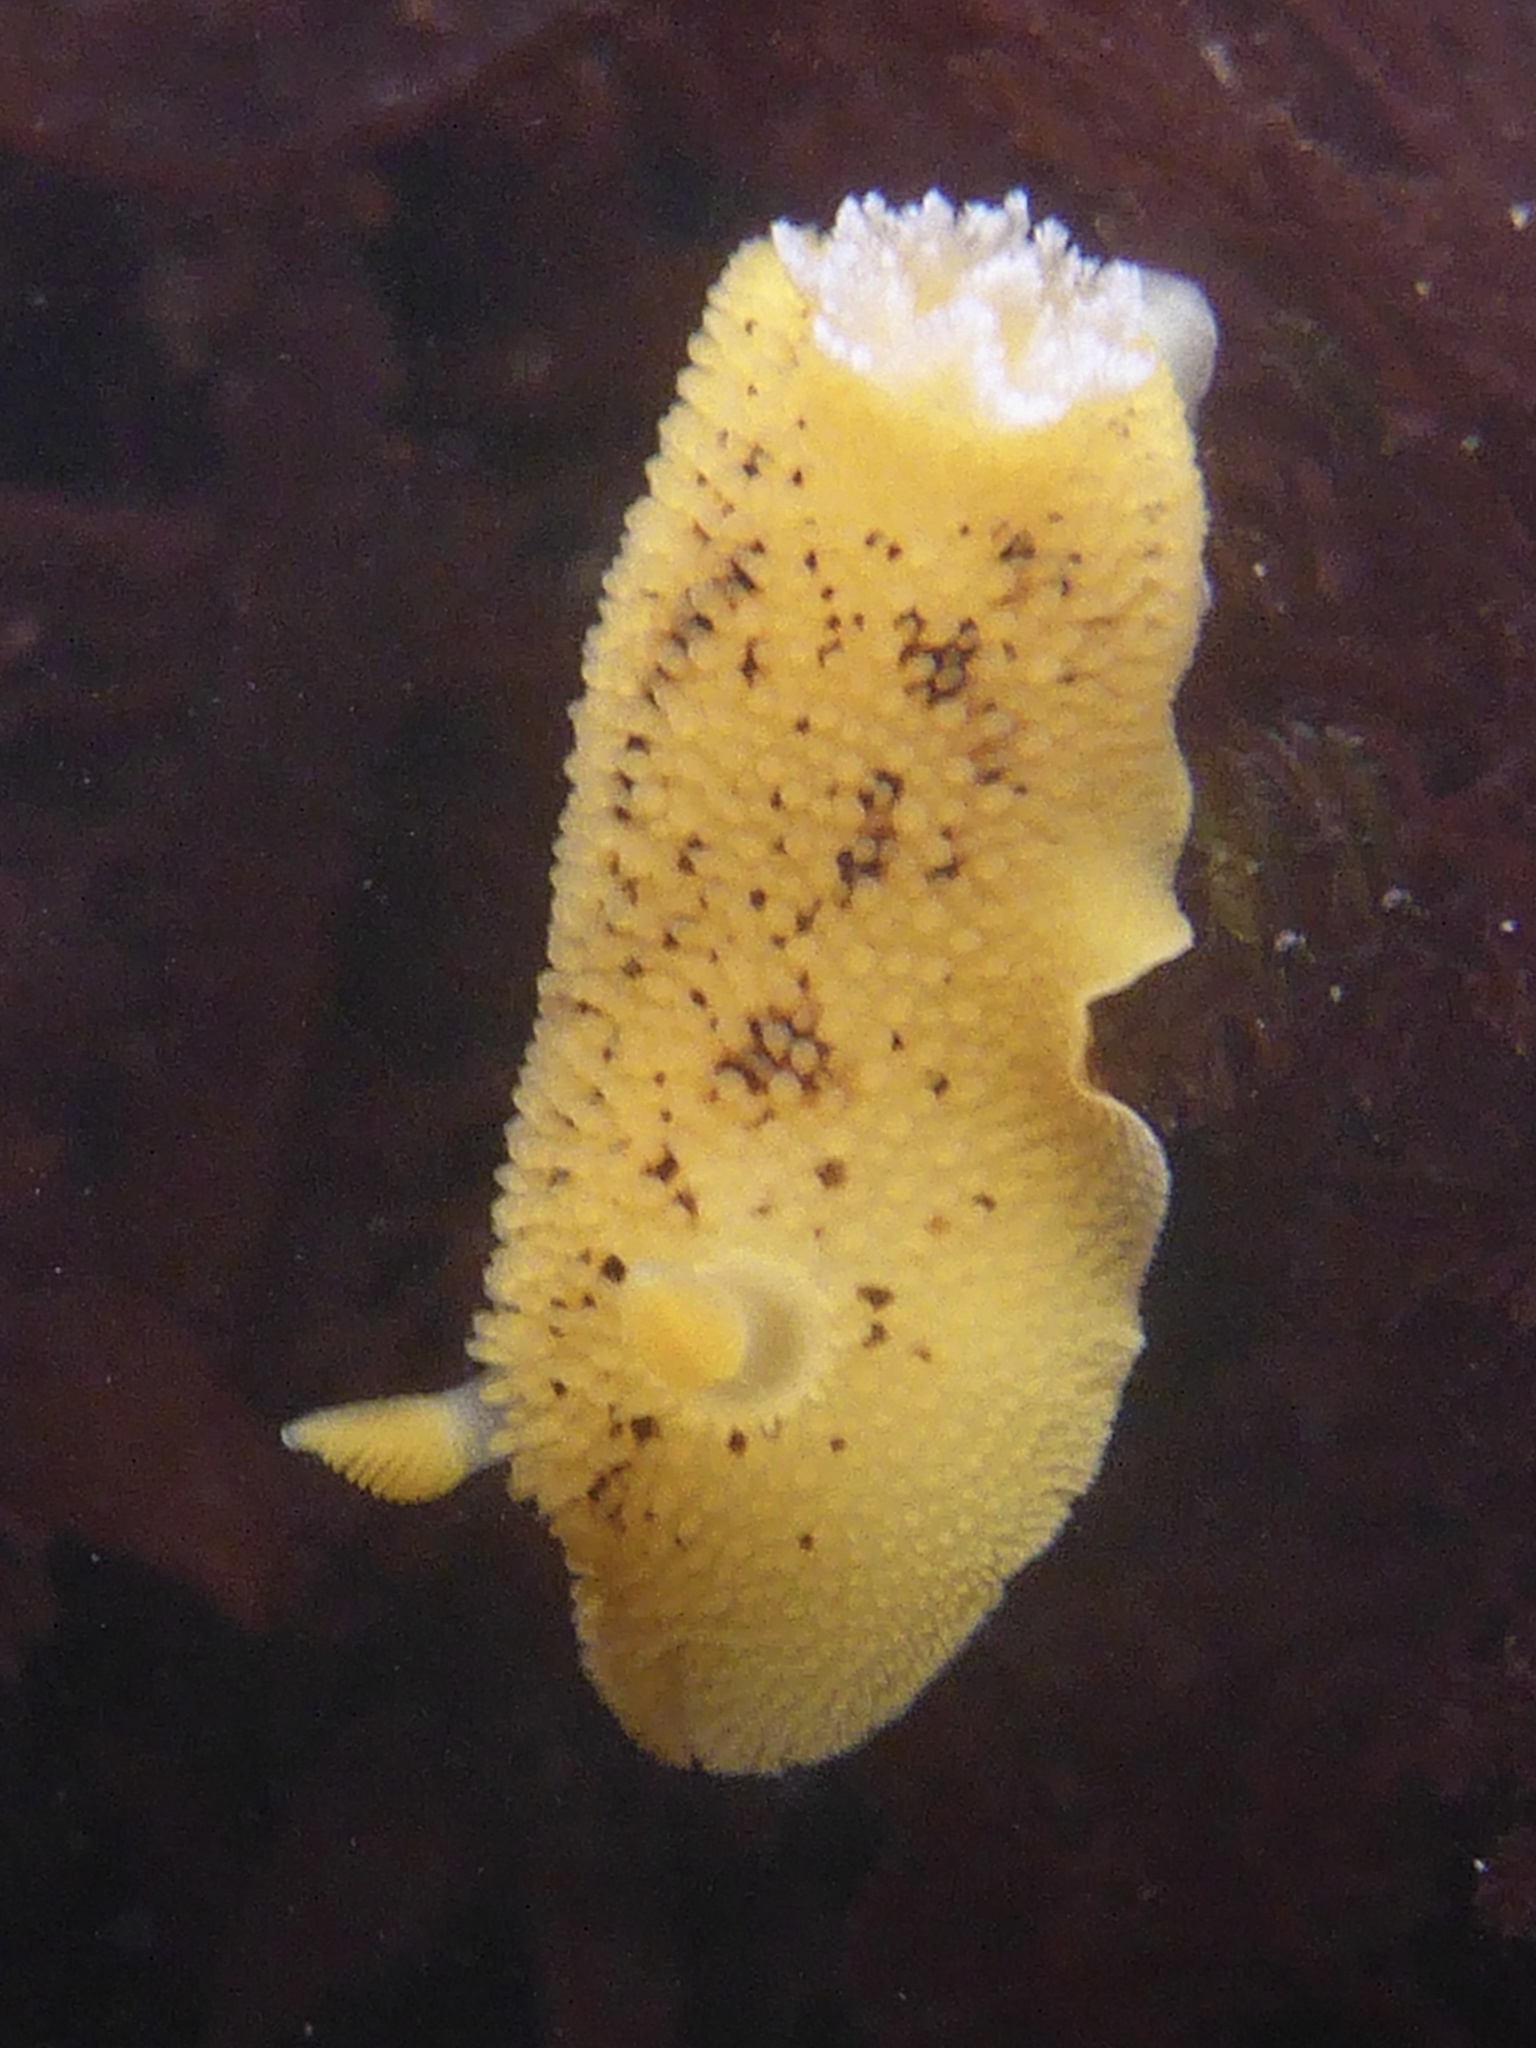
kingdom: Animalia
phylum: Mollusca
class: Gastropoda
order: Nudibranchia
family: Discodorididae
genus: Peltodoris
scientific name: Peltodoris nobilis
